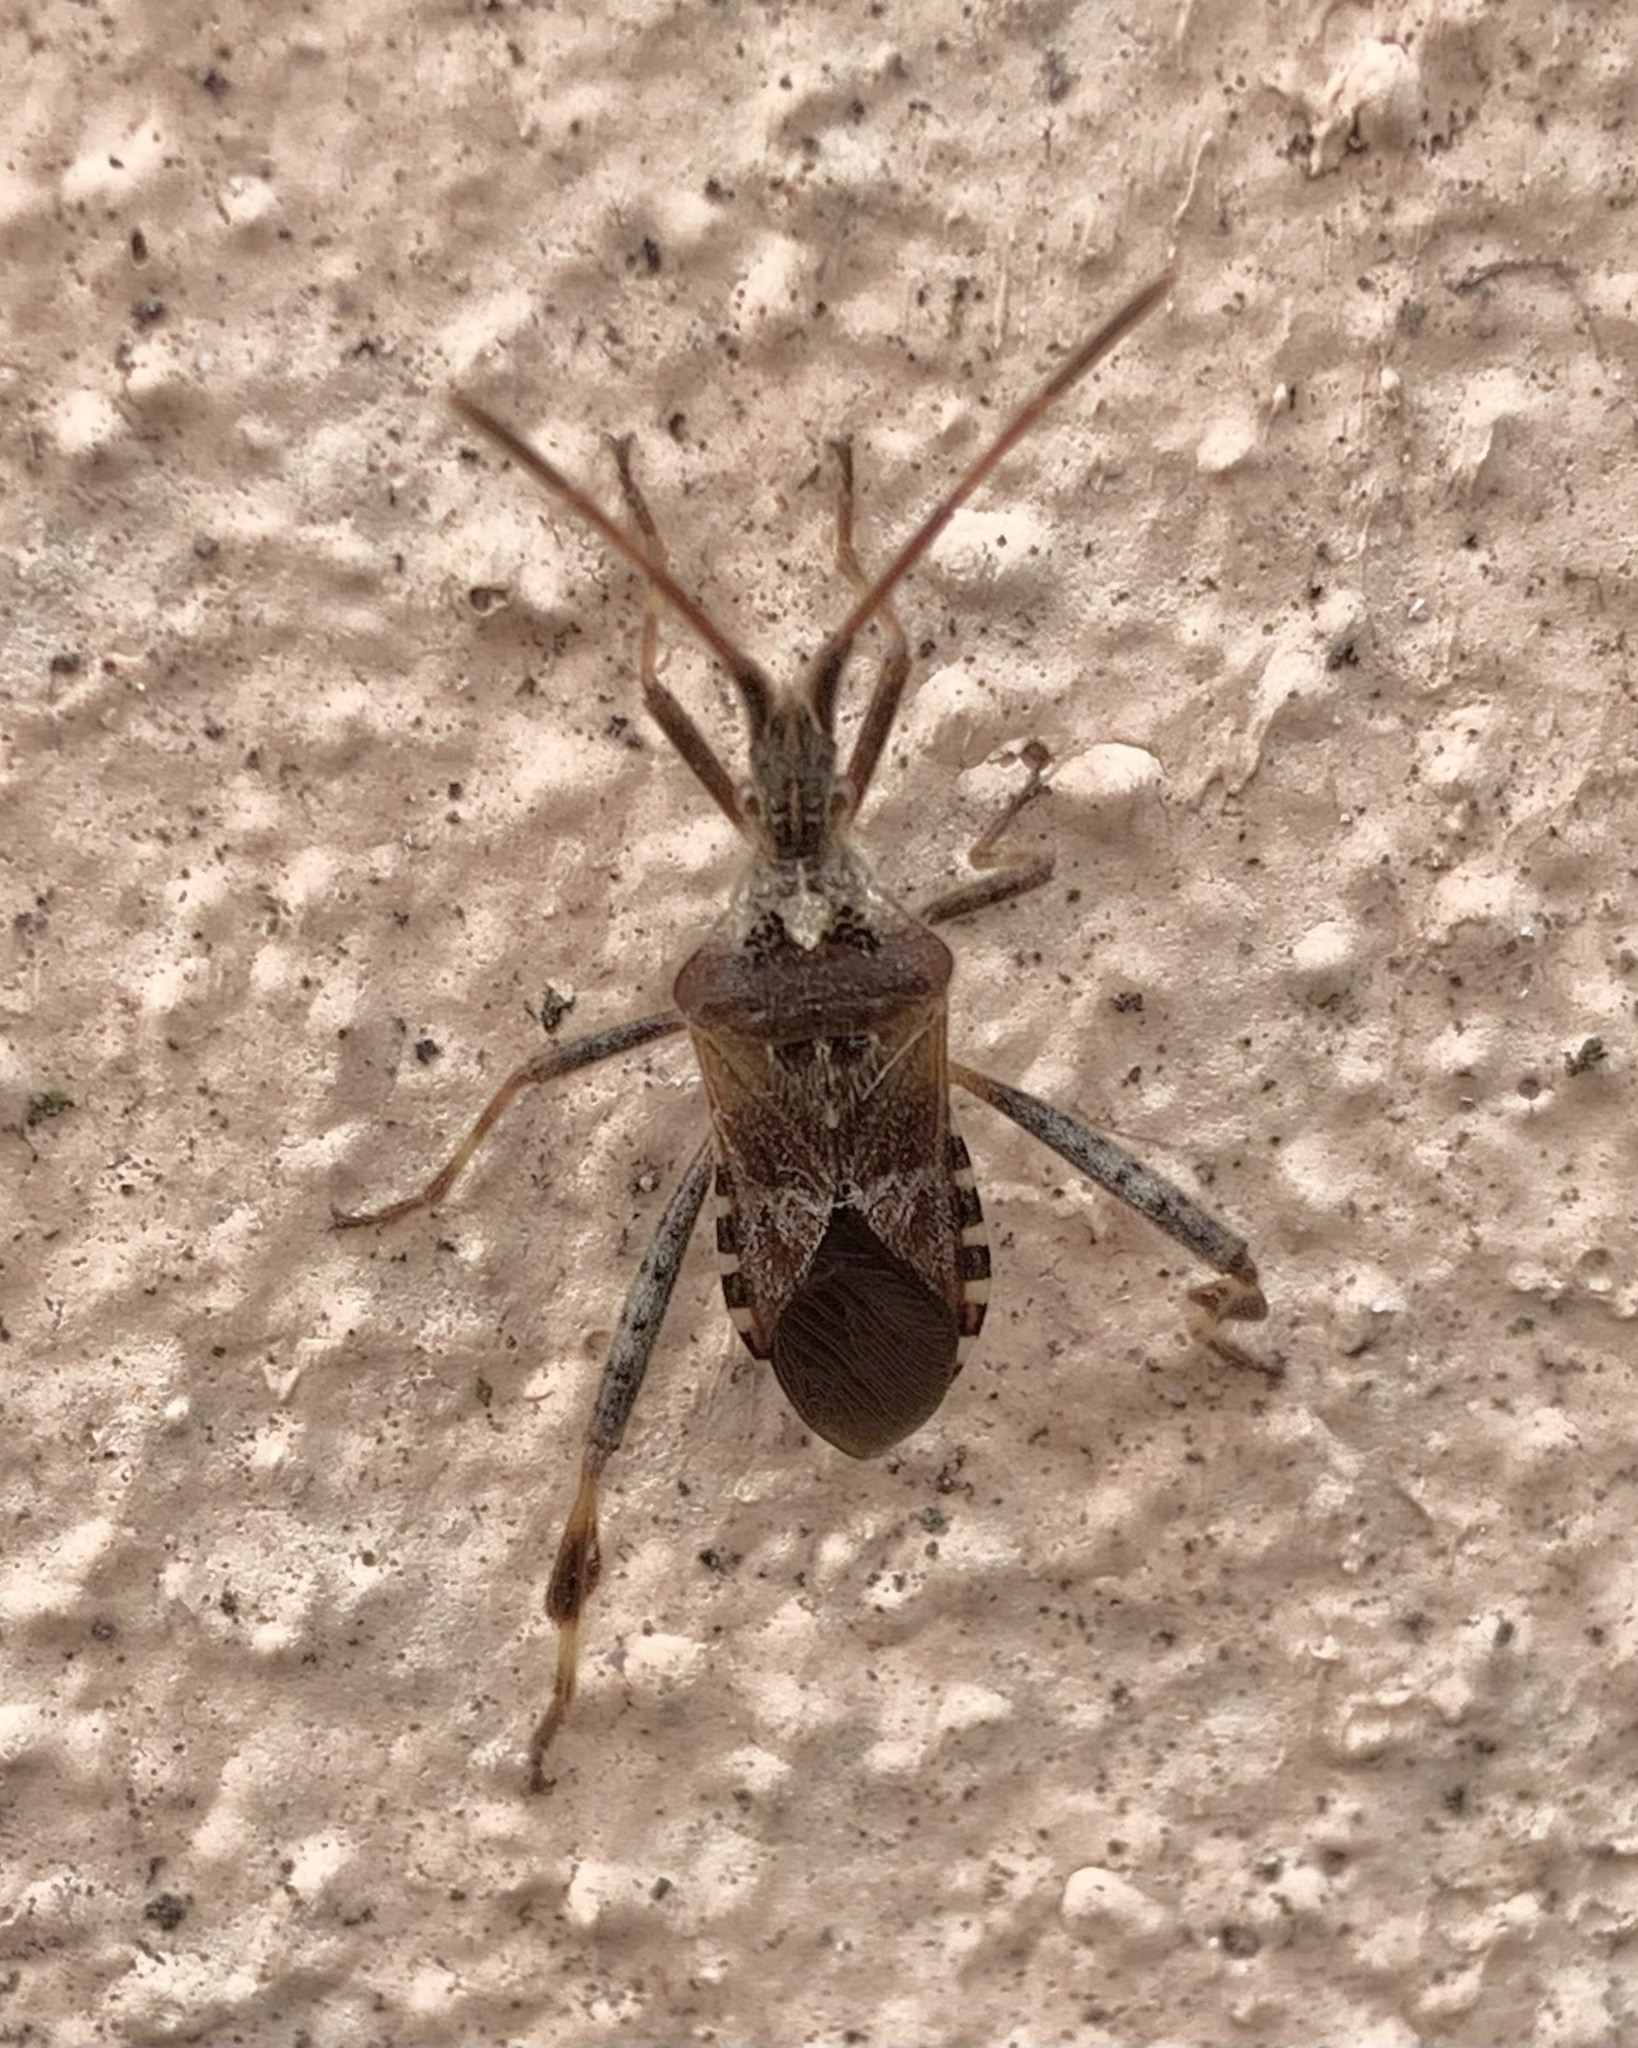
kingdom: Animalia
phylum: Arthropoda
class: Insecta
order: Hemiptera
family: Coreidae
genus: Leptoglossus
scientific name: Leptoglossus occidentalis
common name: Western conifer-seed bug
